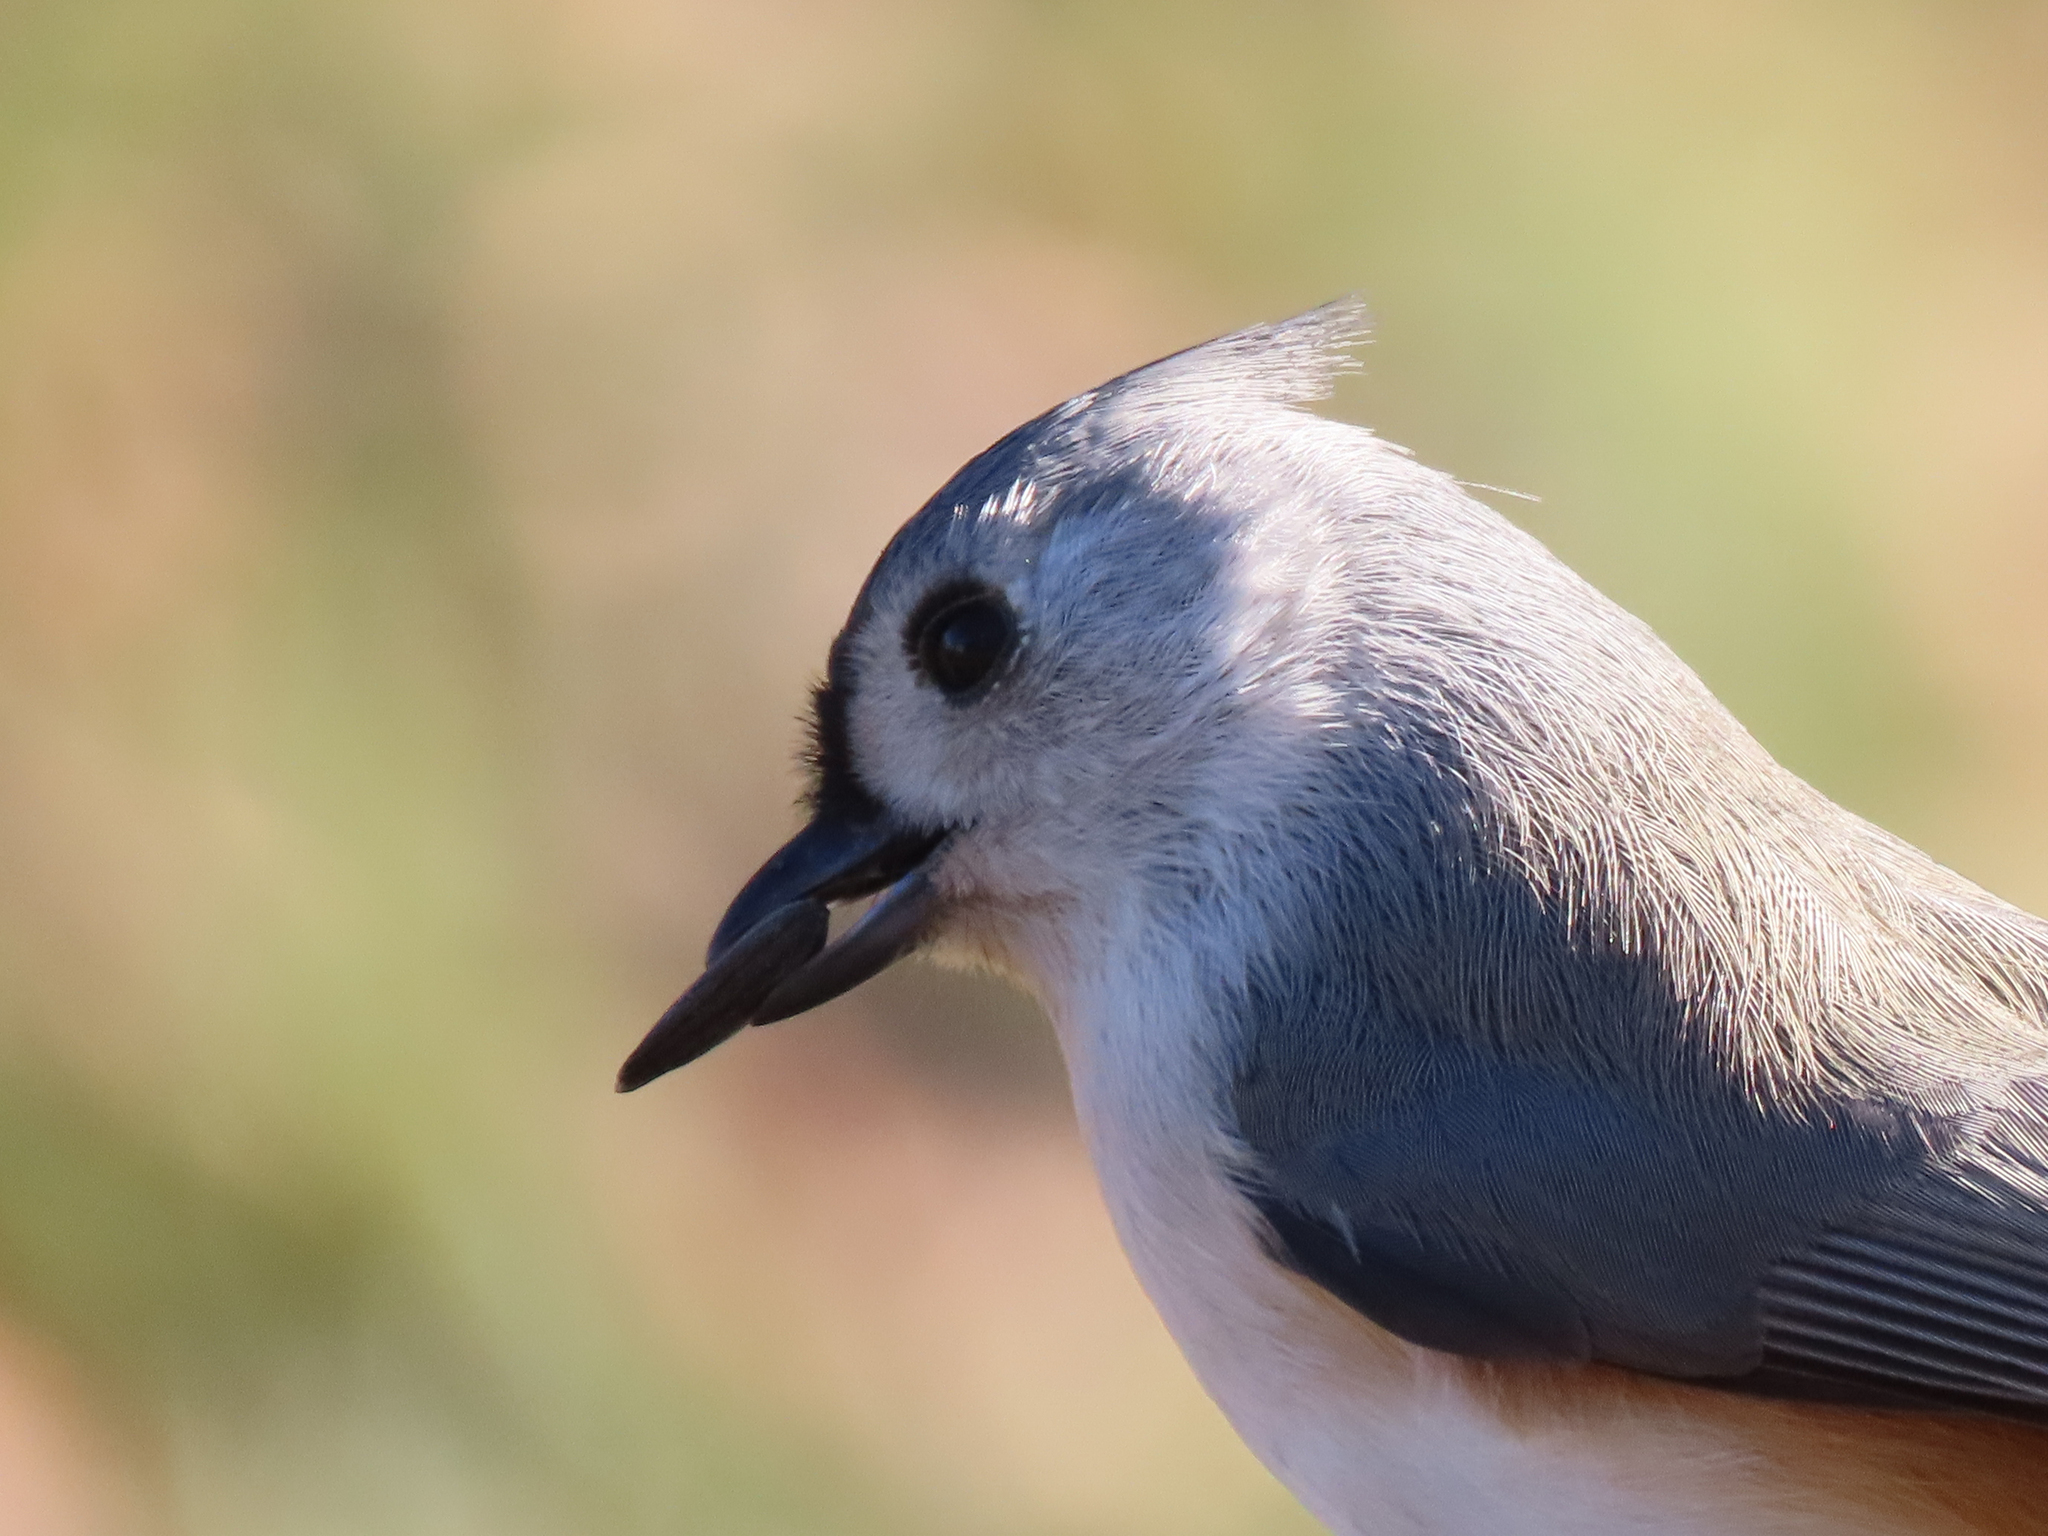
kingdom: Animalia
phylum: Chordata
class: Aves
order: Passeriformes
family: Paridae
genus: Baeolophus
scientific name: Baeolophus bicolor
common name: Tufted titmouse
